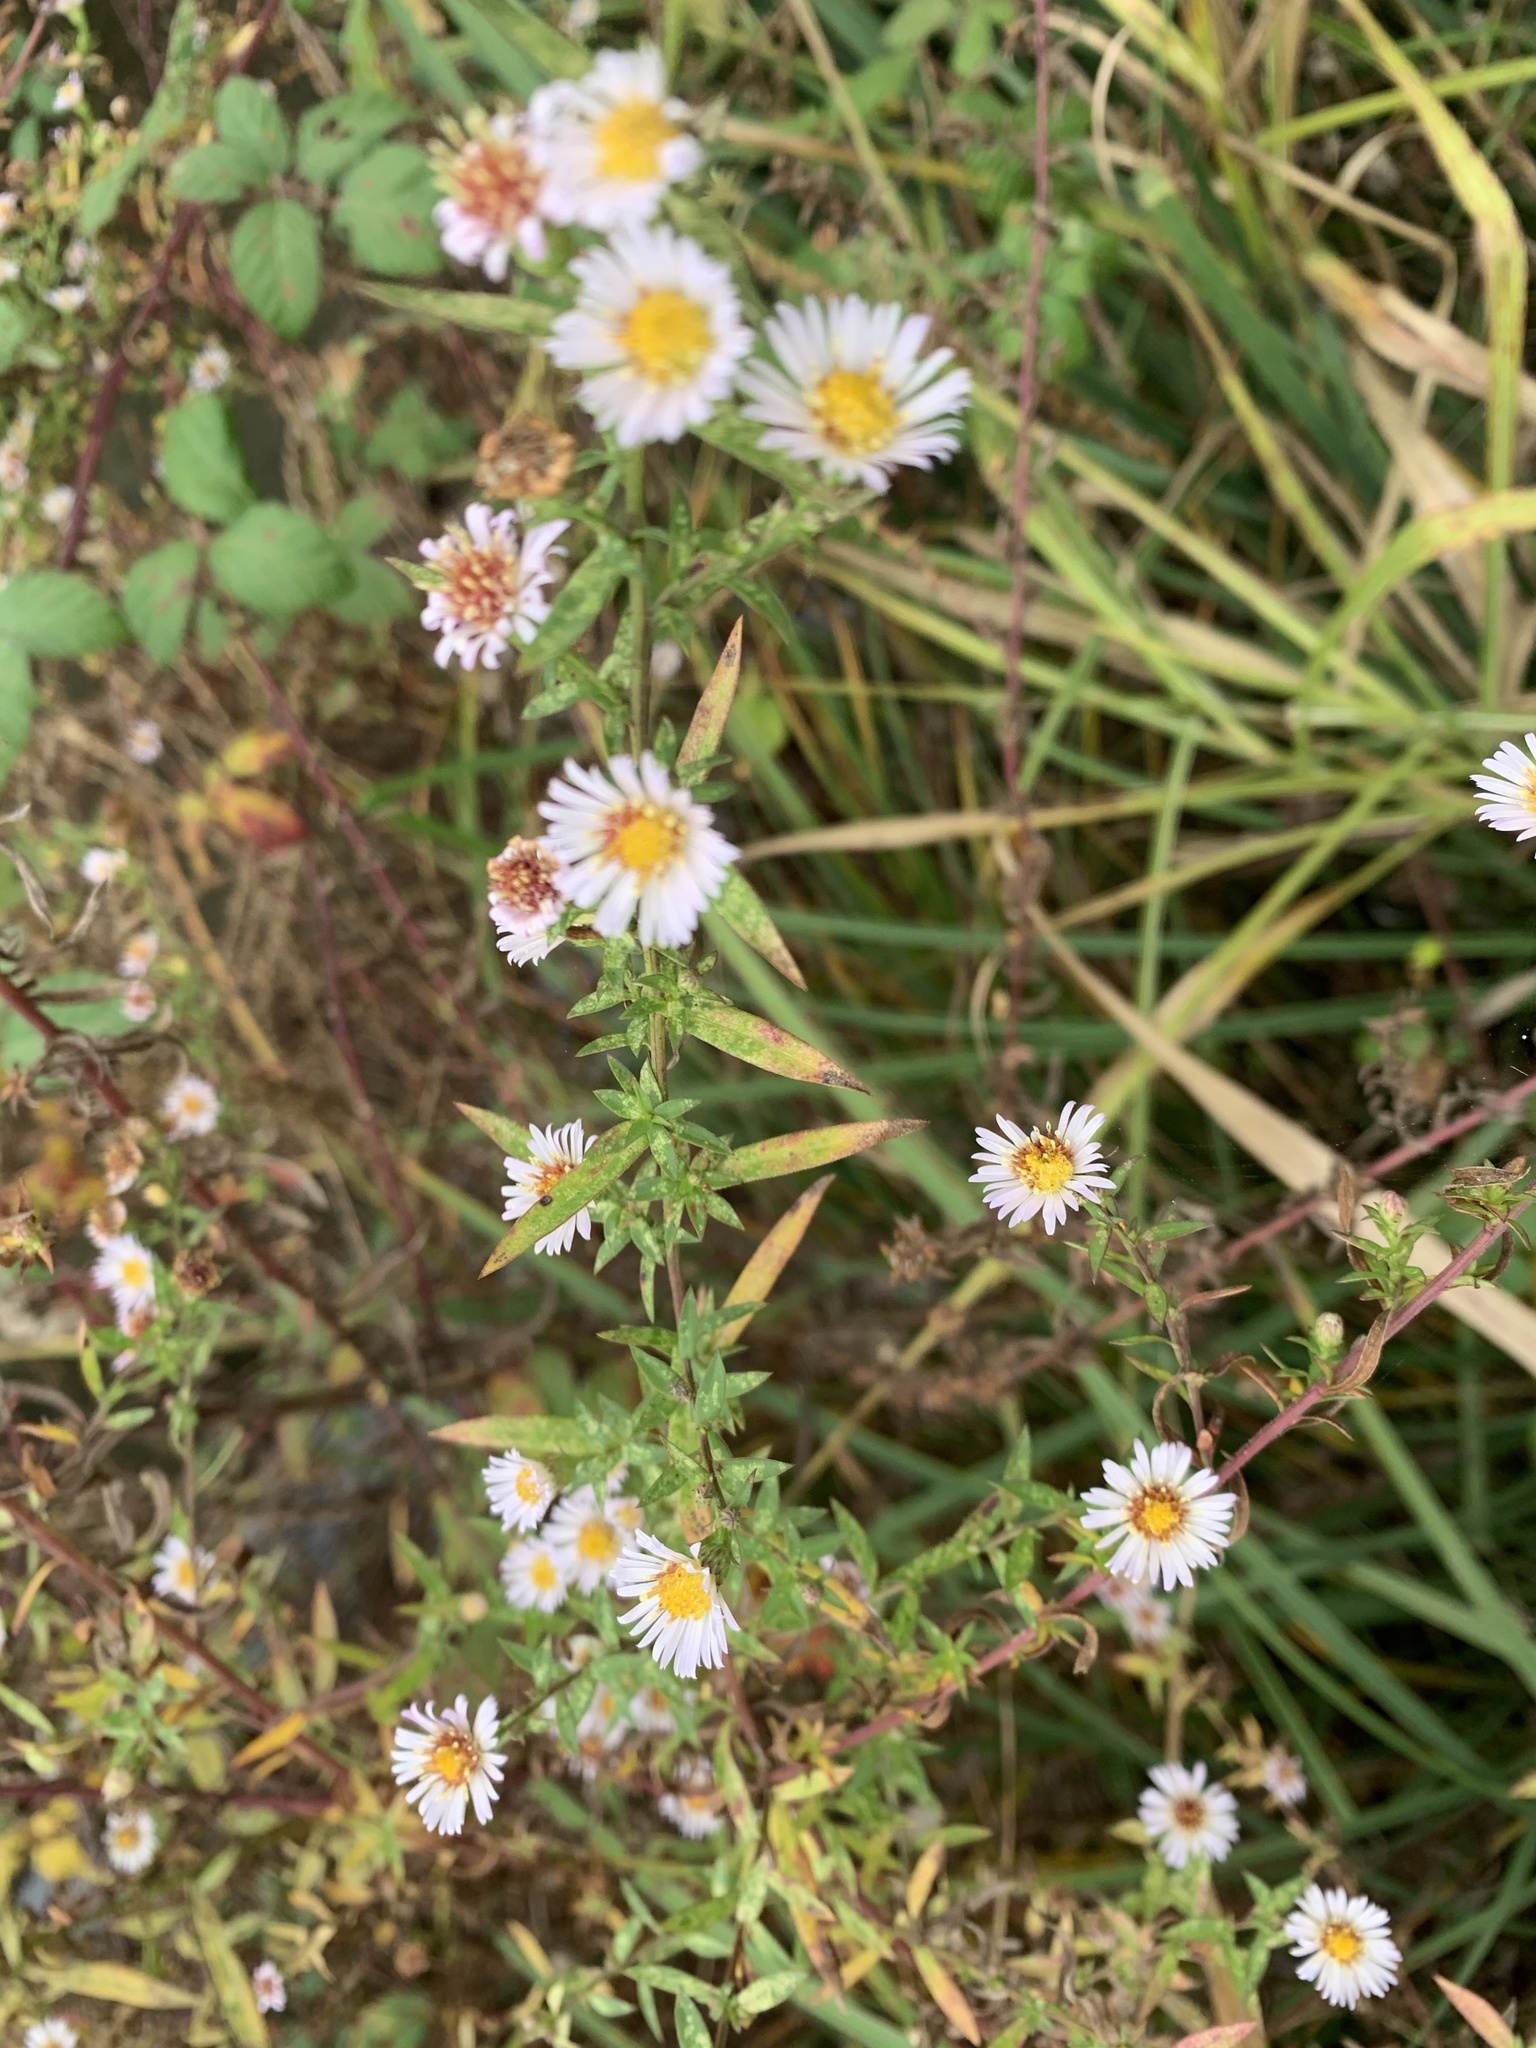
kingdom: Plantae
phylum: Tracheophyta
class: Magnoliopsida
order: Asterales
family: Asteraceae
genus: Symphyotrichum
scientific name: Symphyotrichum salignum
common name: Common michaelmas daisy
